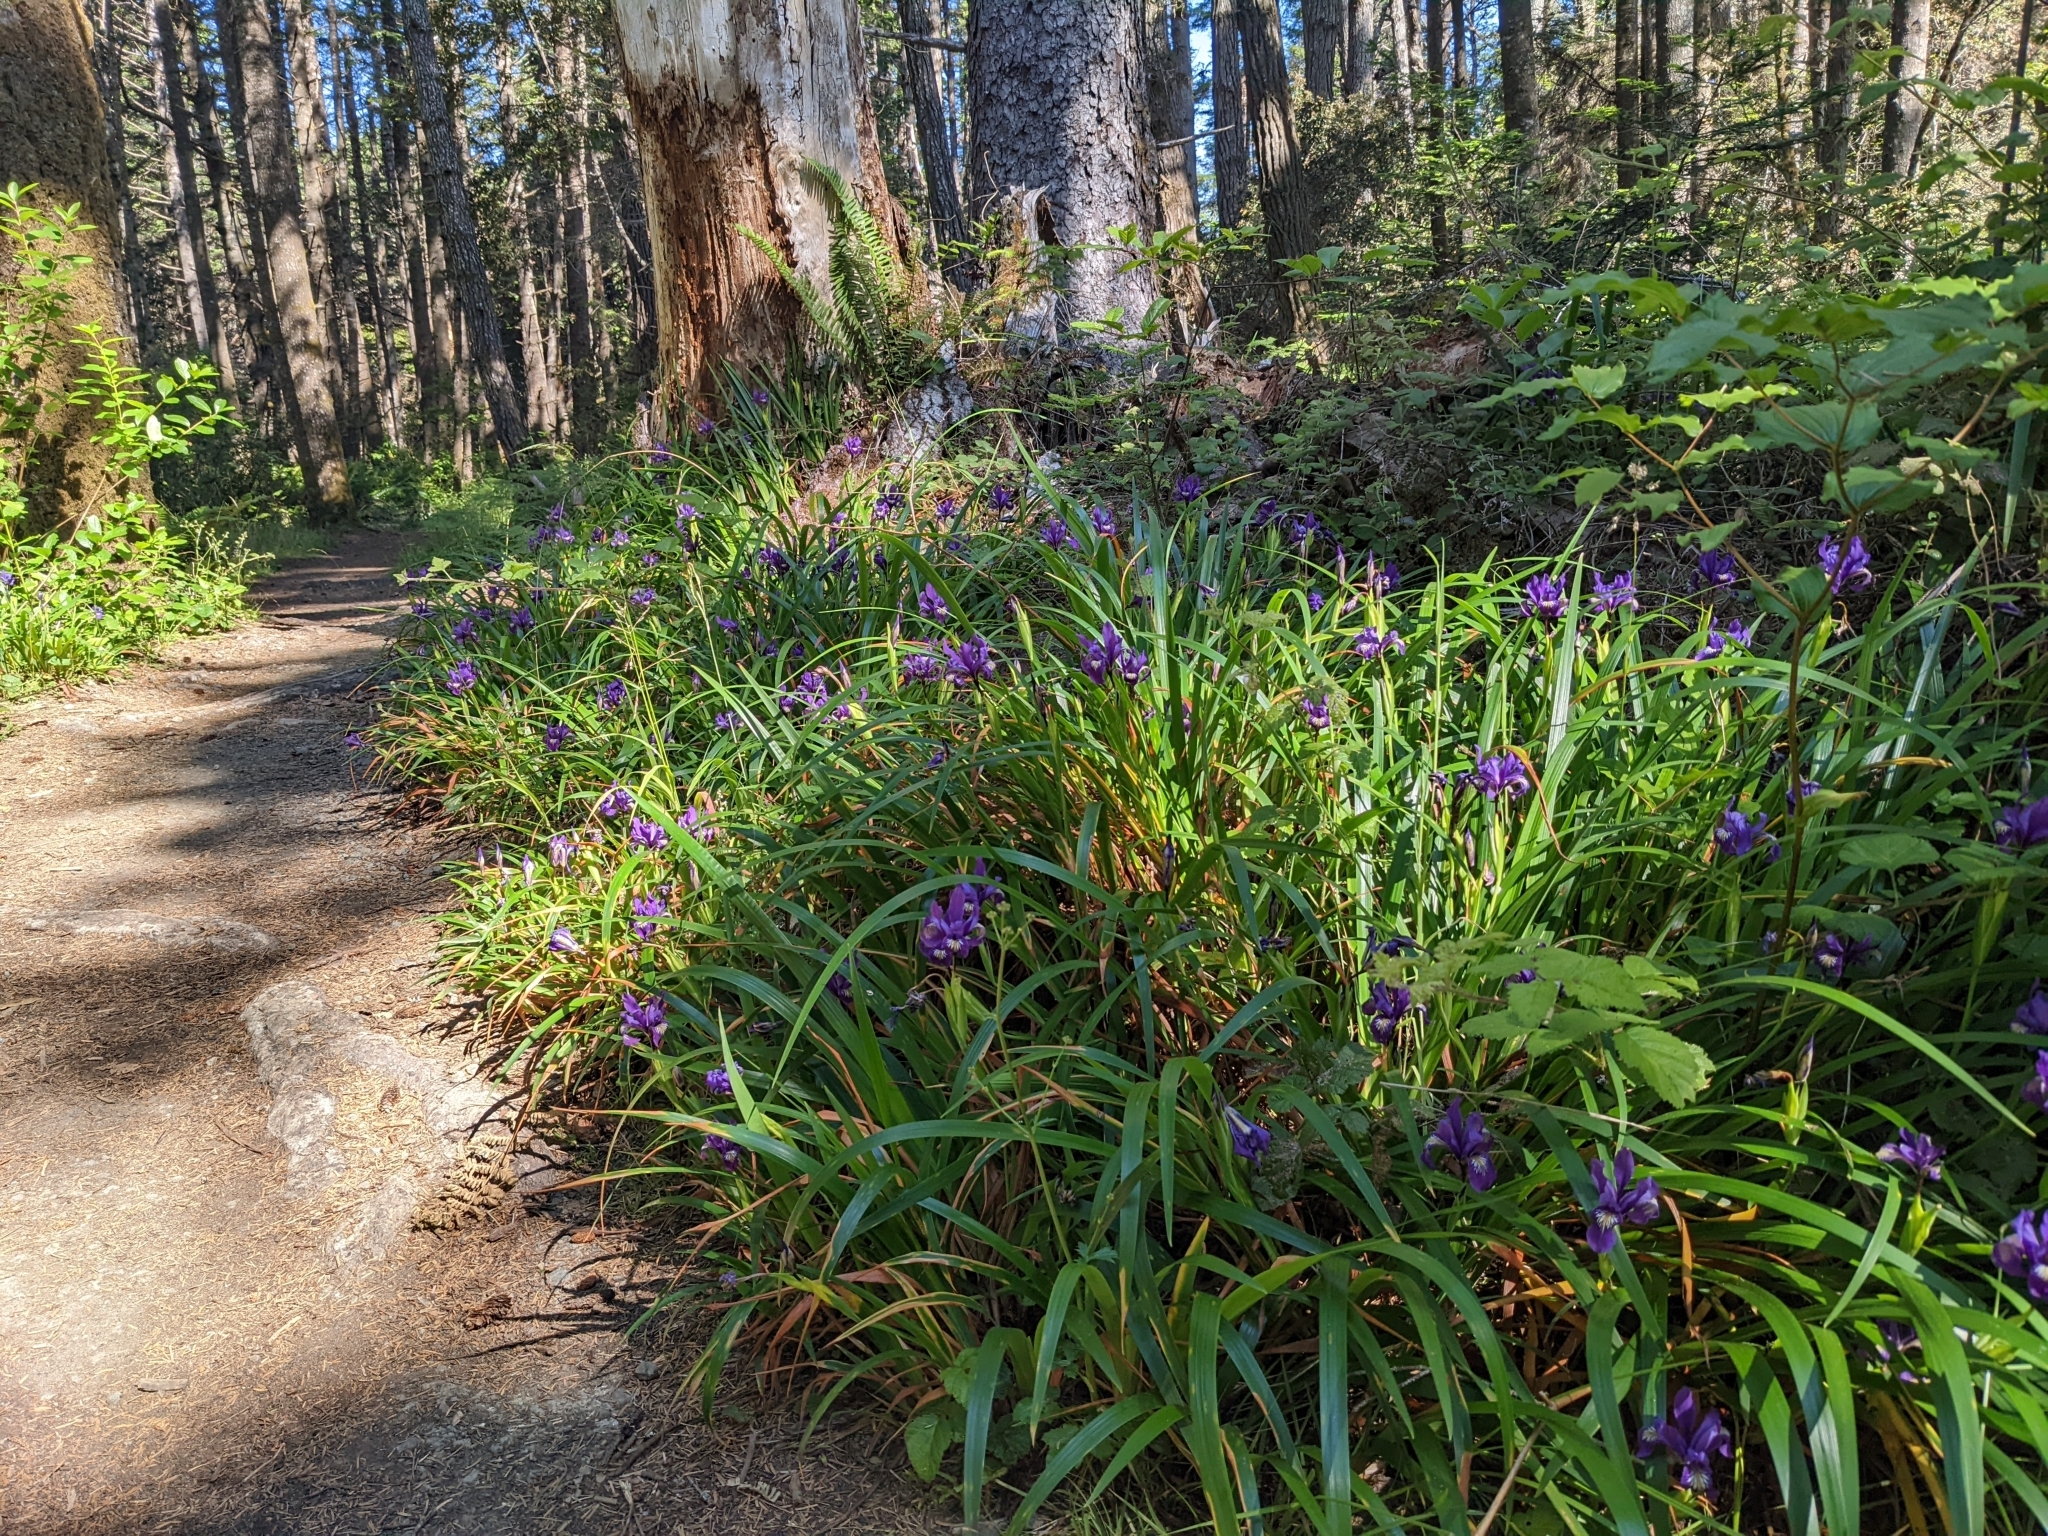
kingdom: Plantae
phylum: Tracheophyta
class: Liliopsida
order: Asparagales
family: Iridaceae
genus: Iris
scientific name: Iris douglasiana
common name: Marin iris
